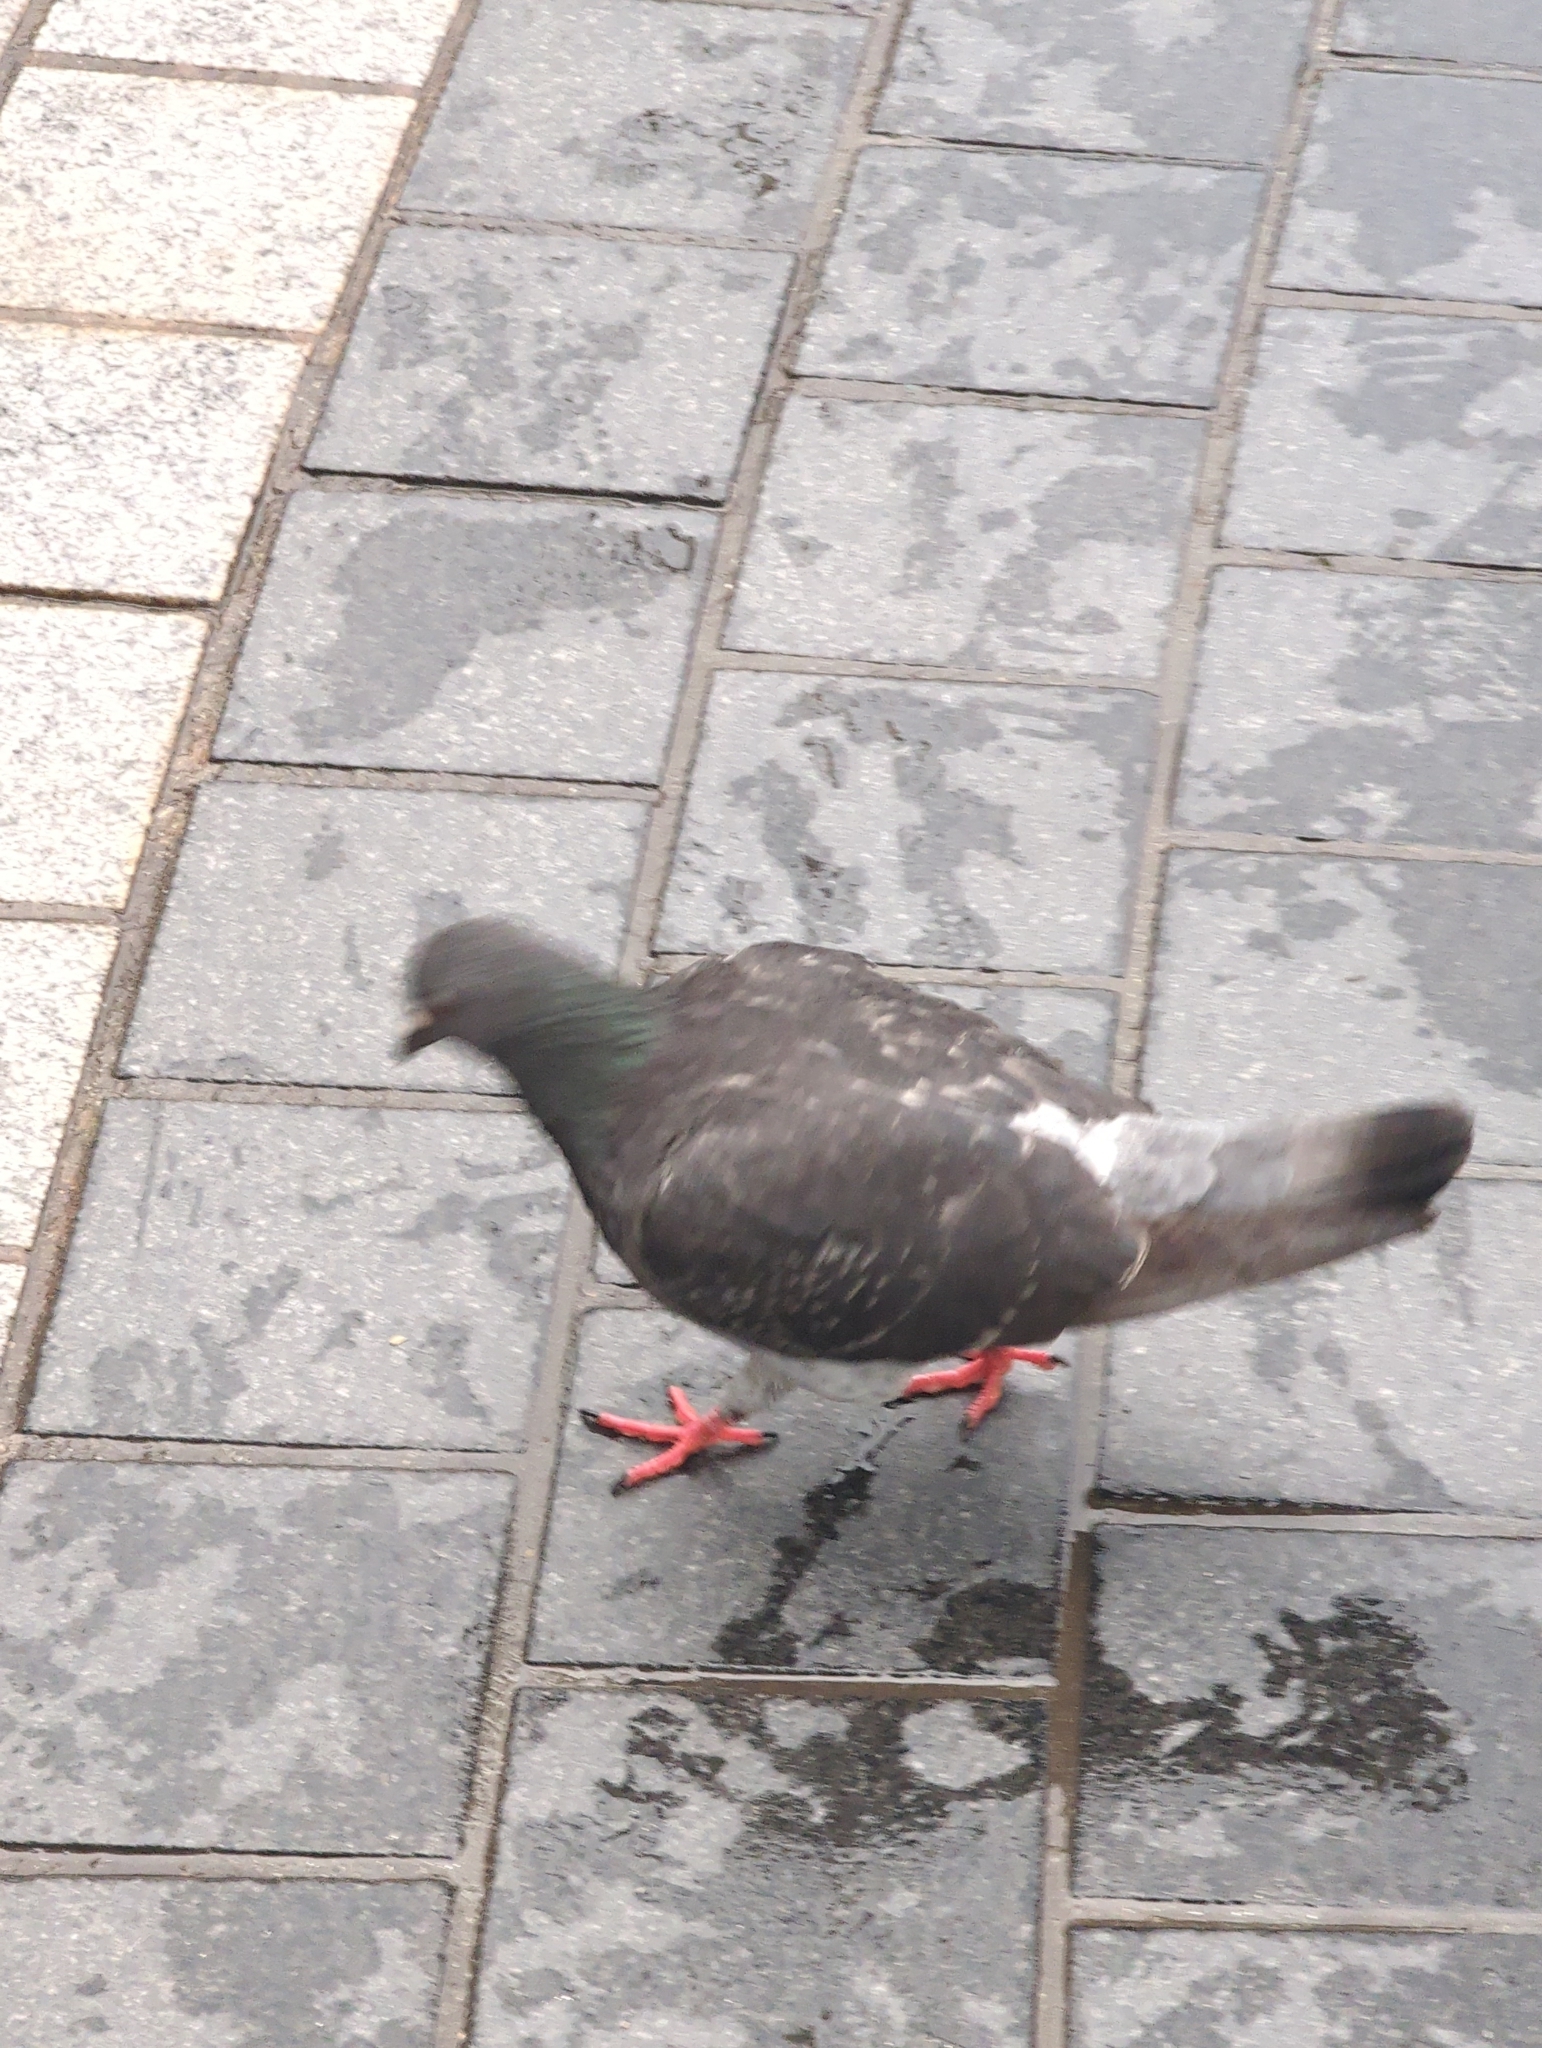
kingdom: Animalia
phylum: Chordata
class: Aves
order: Columbiformes
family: Columbidae
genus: Columba
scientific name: Columba livia
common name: Rock pigeon
